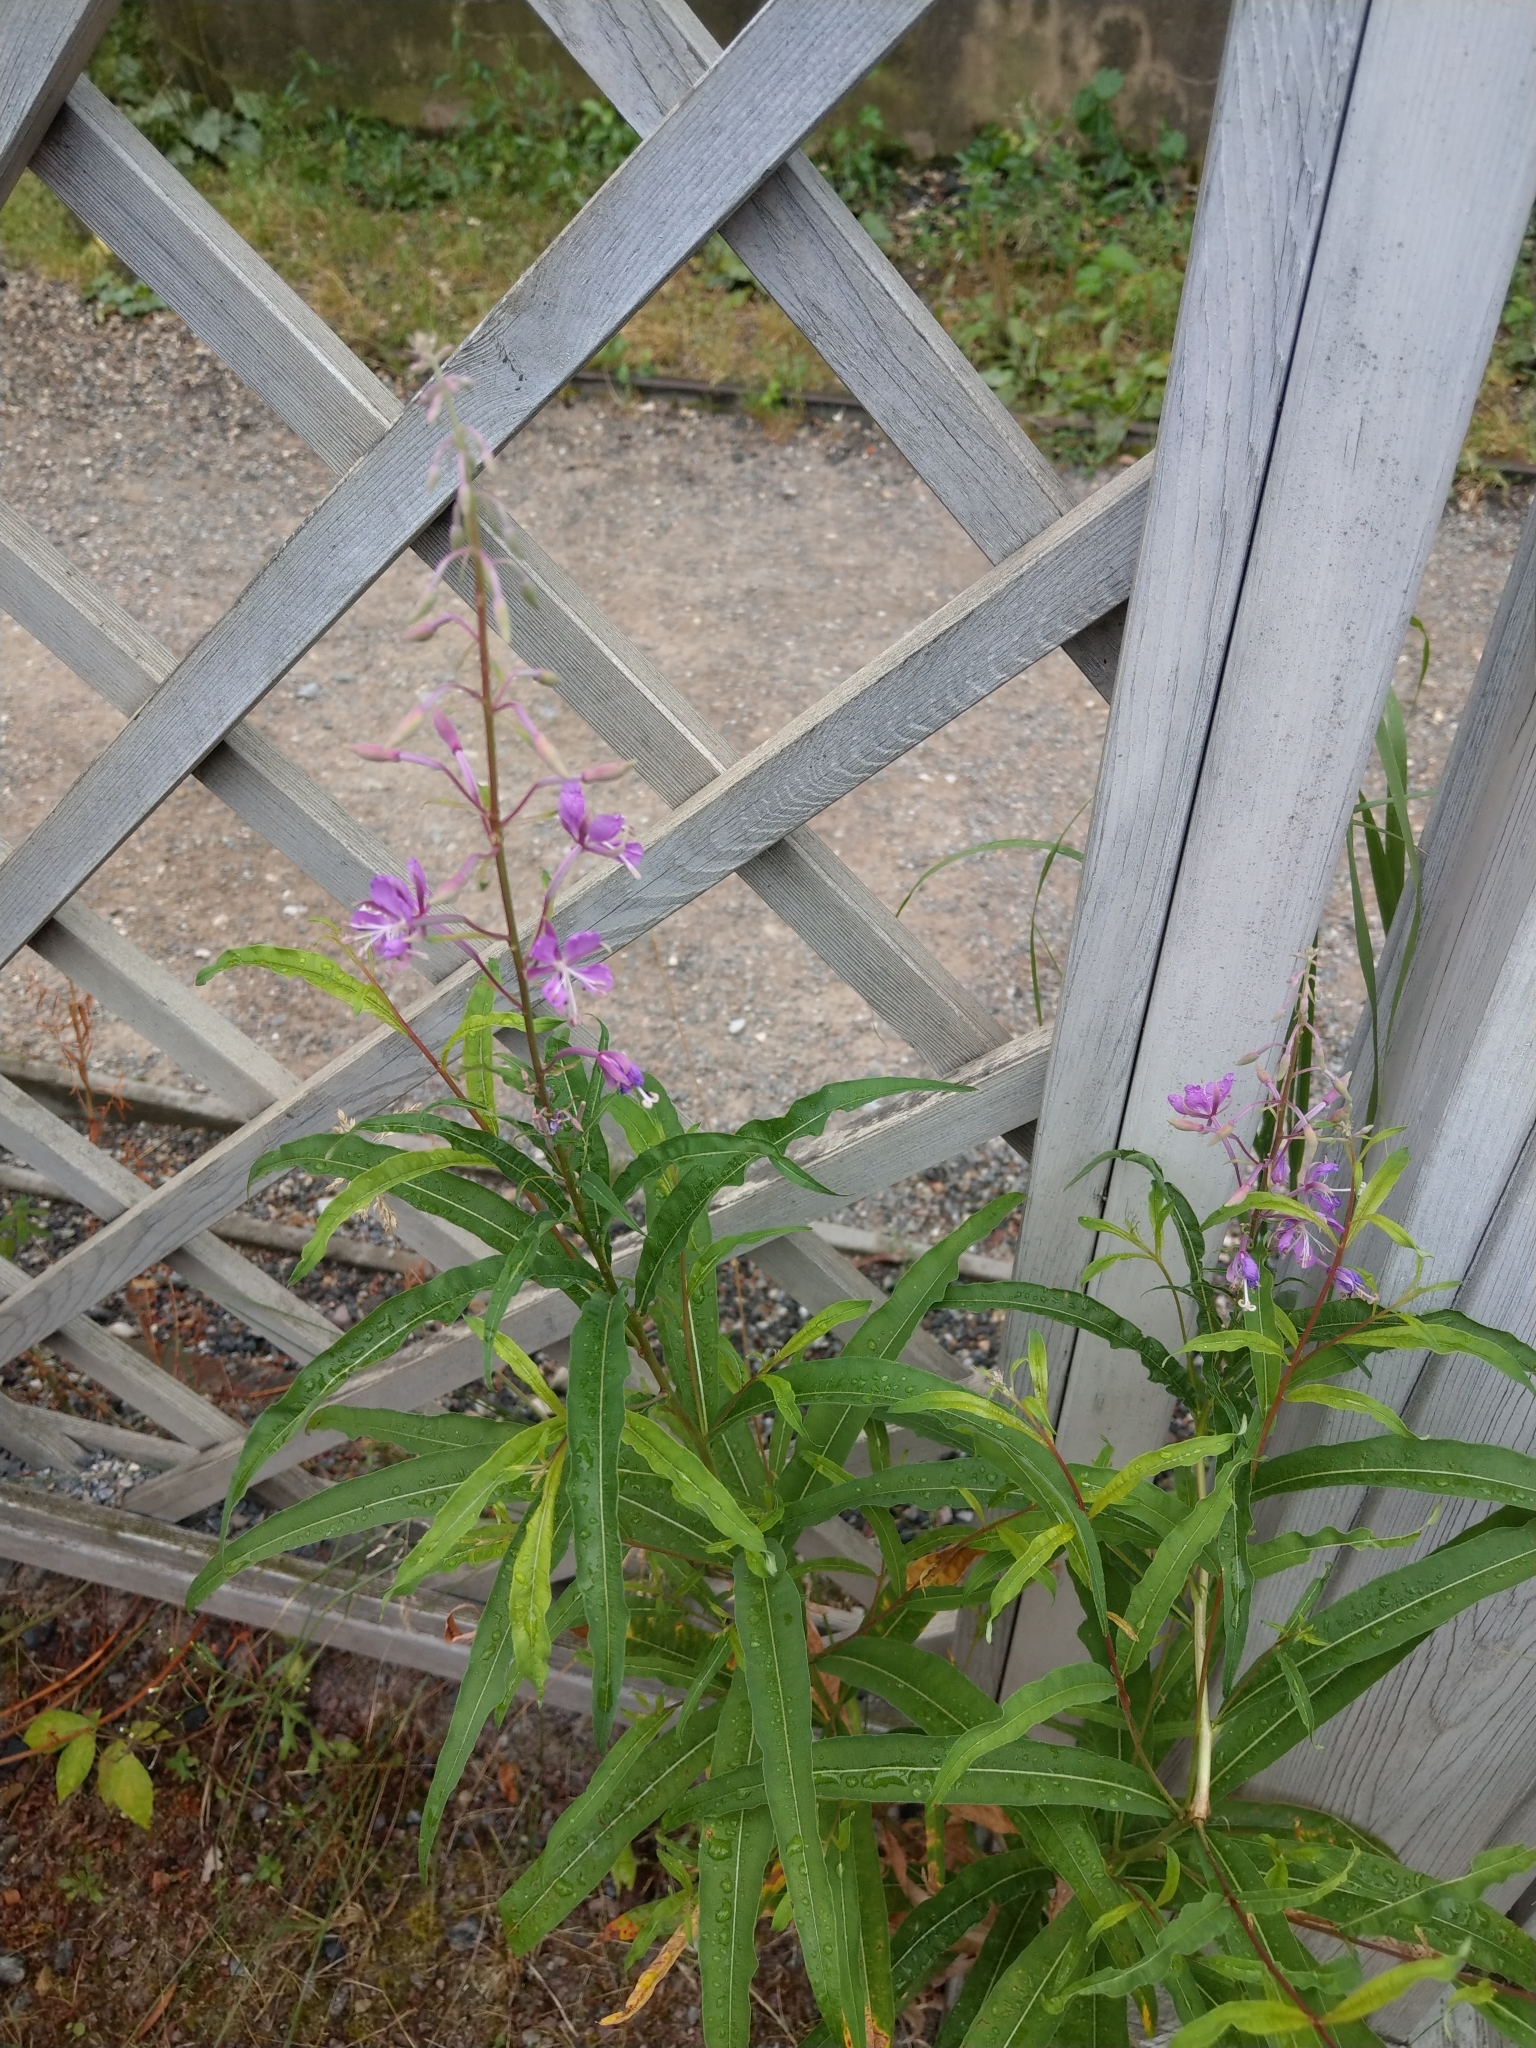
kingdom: Plantae
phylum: Tracheophyta
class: Magnoliopsida
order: Myrtales
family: Onagraceae
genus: Chamaenerion
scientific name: Chamaenerion angustifolium
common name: Fireweed
